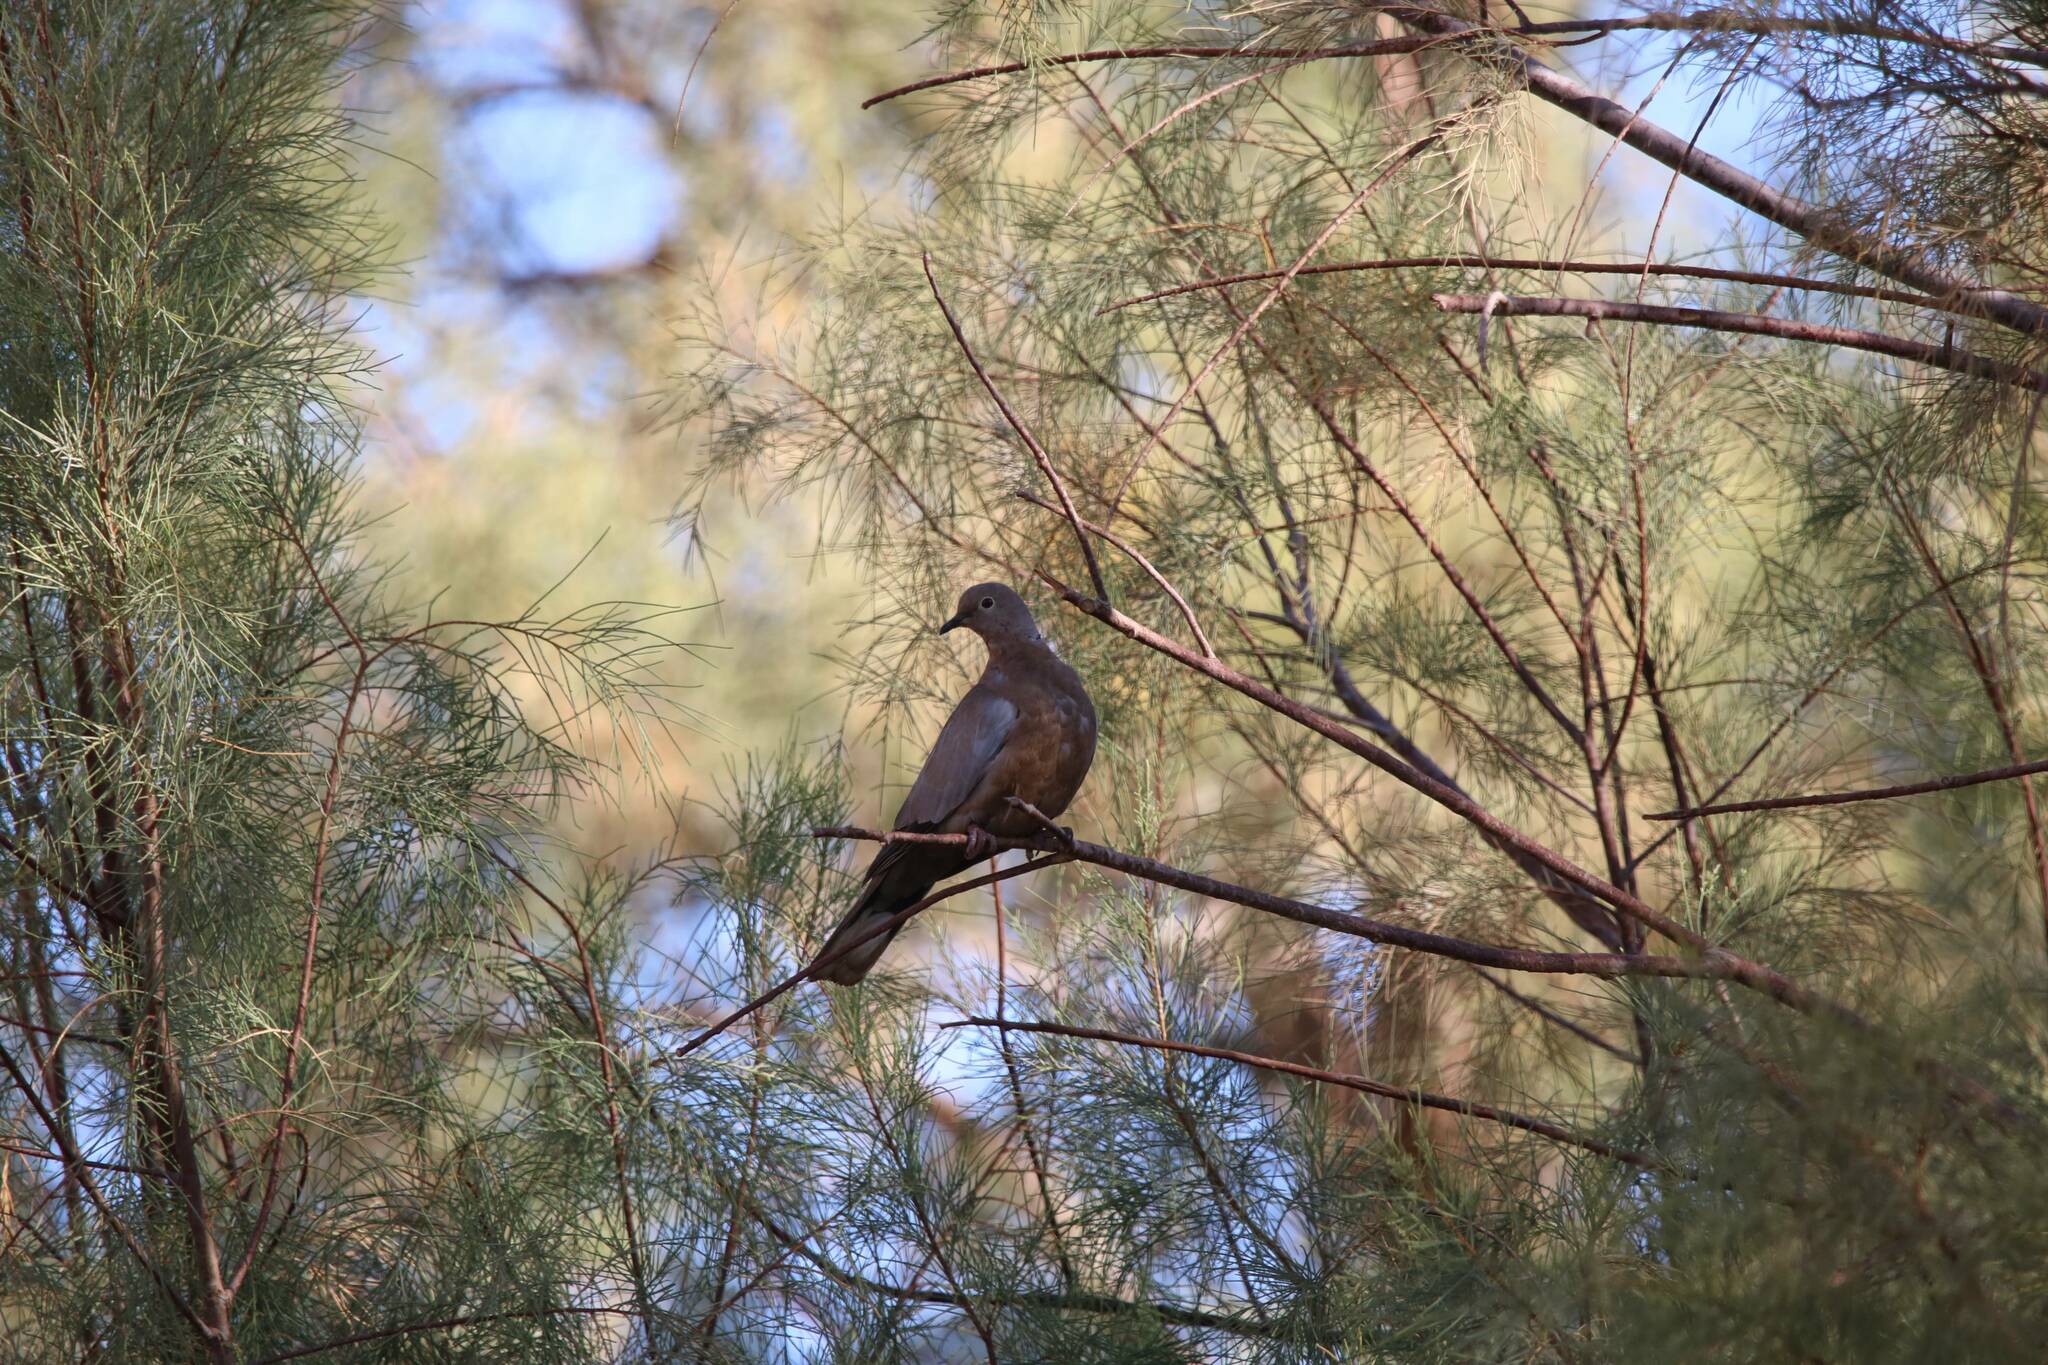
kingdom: Animalia
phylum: Chordata
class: Aves
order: Columbiformes
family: Columbidae
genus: Streptopelia
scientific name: Streptopelia roseogrisea
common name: African collared dove
